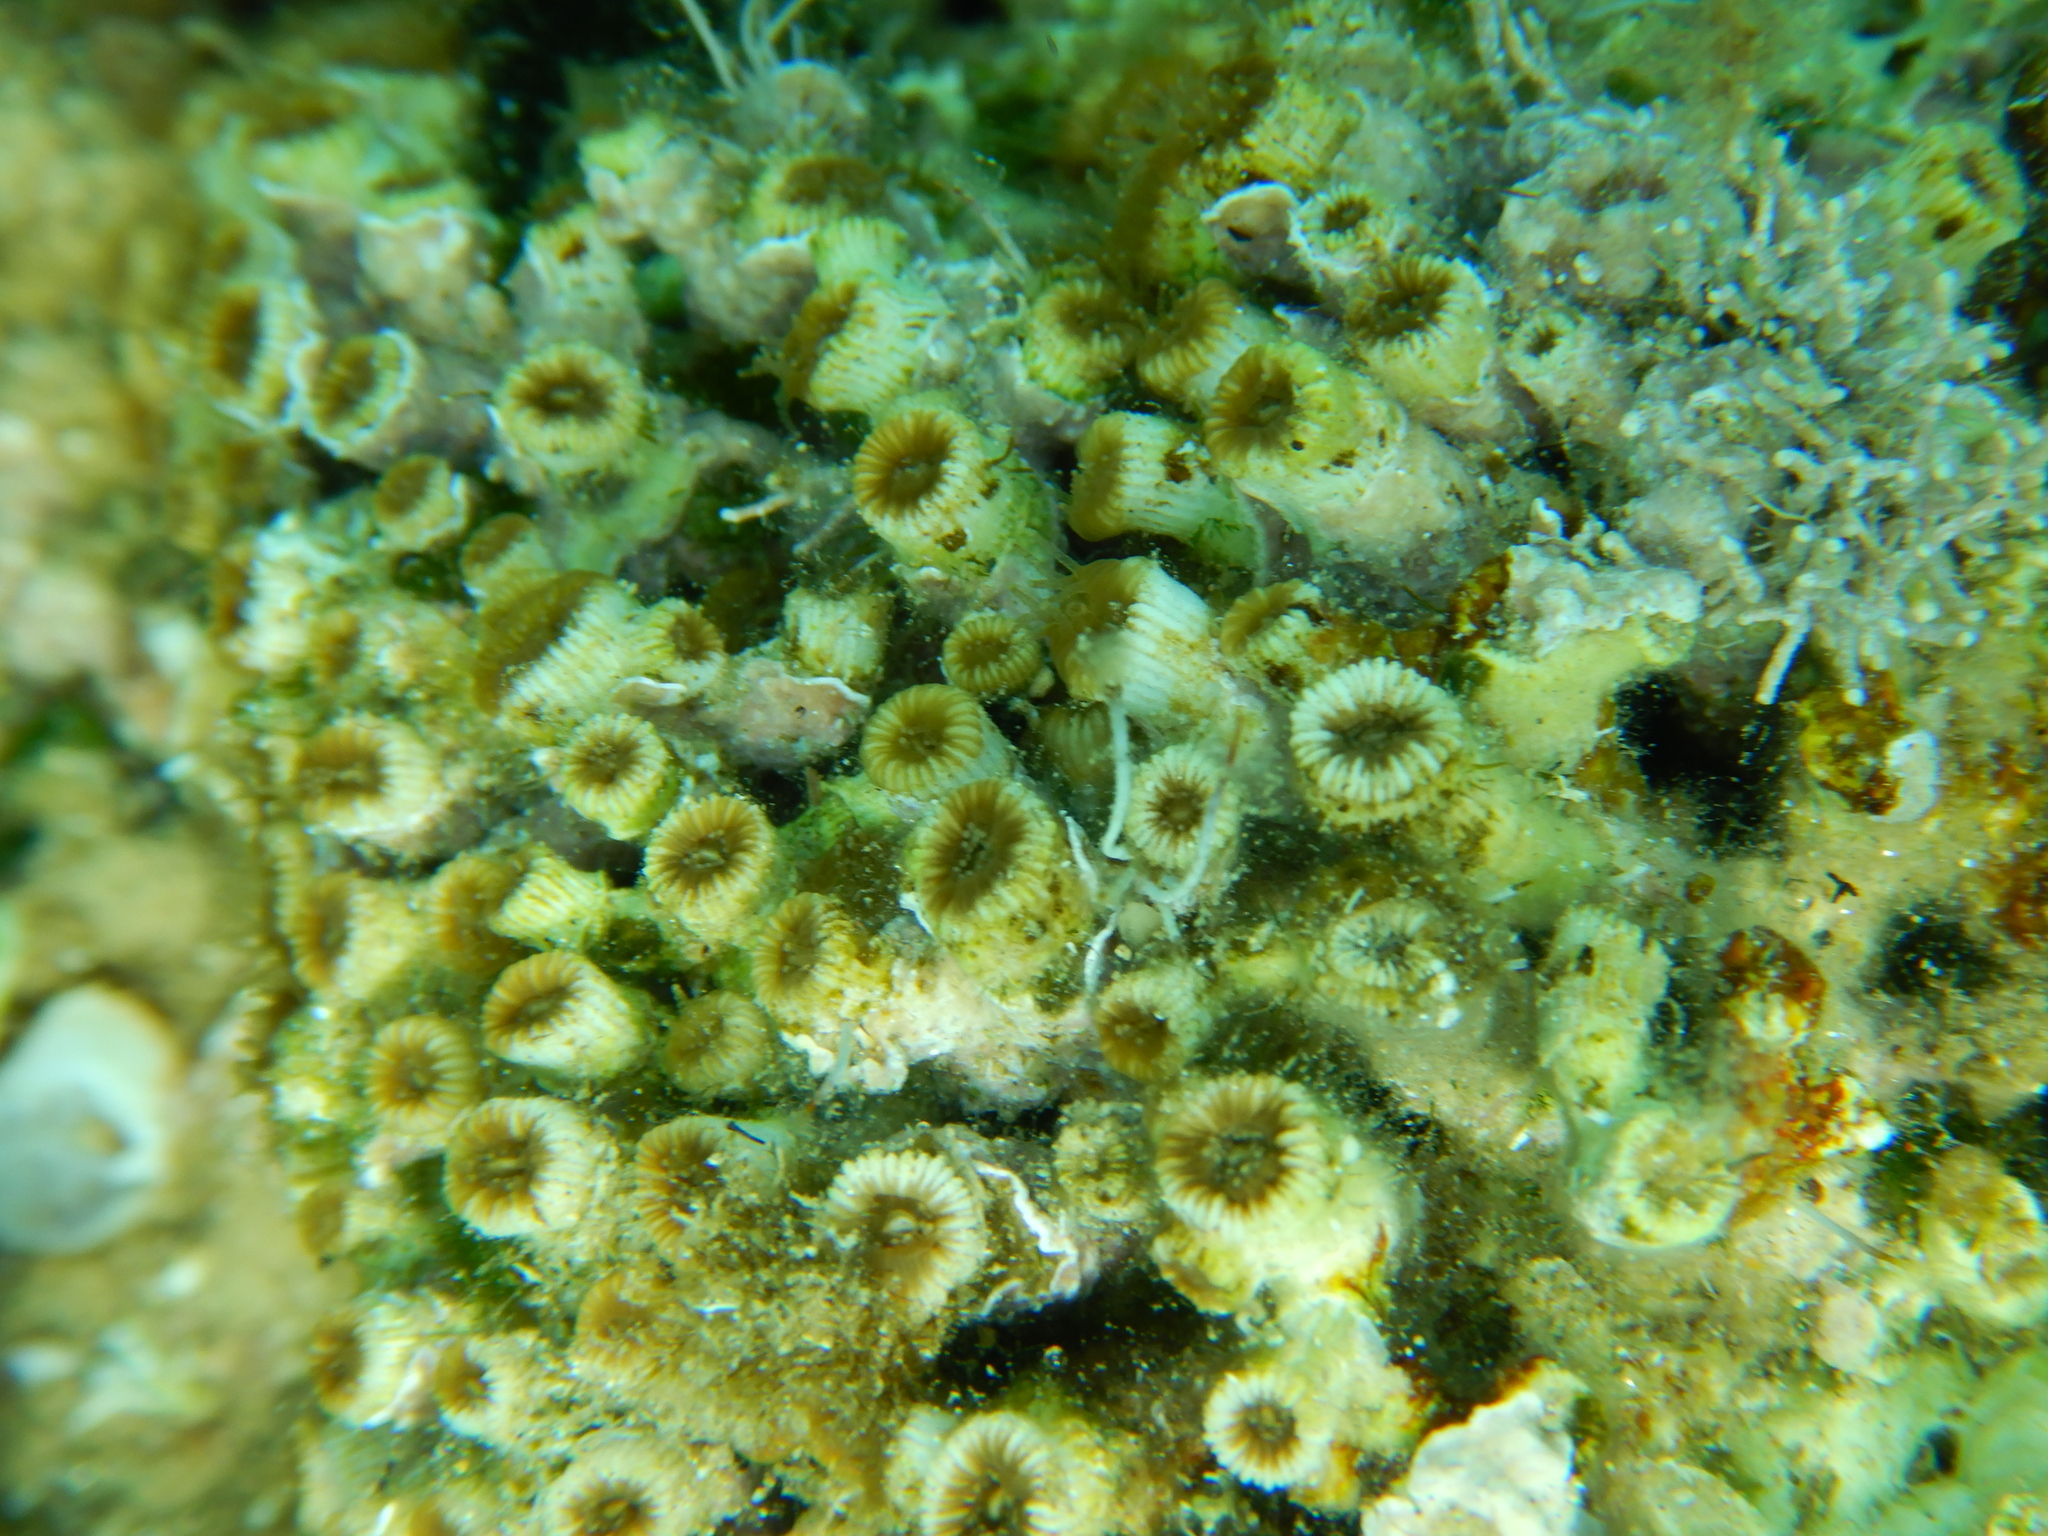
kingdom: Animalia
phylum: Cnidaria
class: Anthozoa
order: Scleractinia
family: Cladocoridae
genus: Cladocora
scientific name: Cladocora caespitosa
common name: Cladocora
